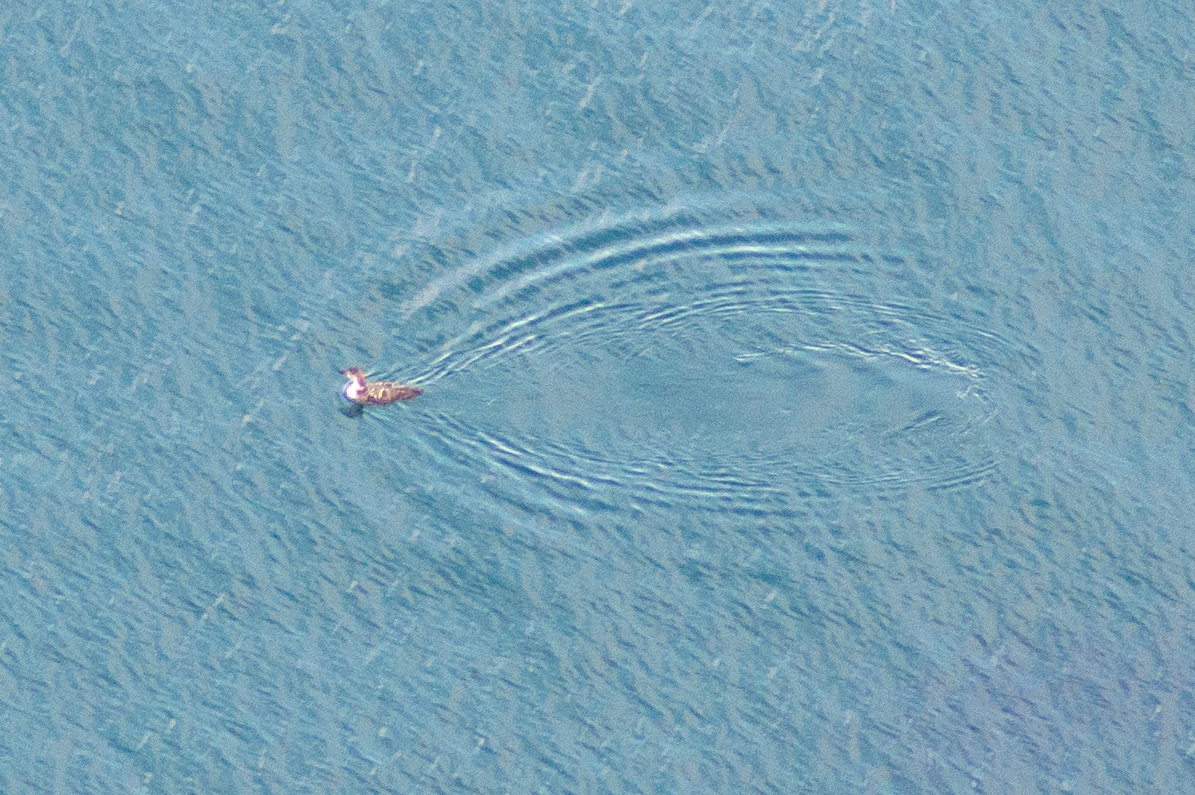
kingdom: Animalia
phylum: Chordata
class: Aves
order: Gaviiformes
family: Gaviidae
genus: Gavia
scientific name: Gavia immer
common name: Common loon
